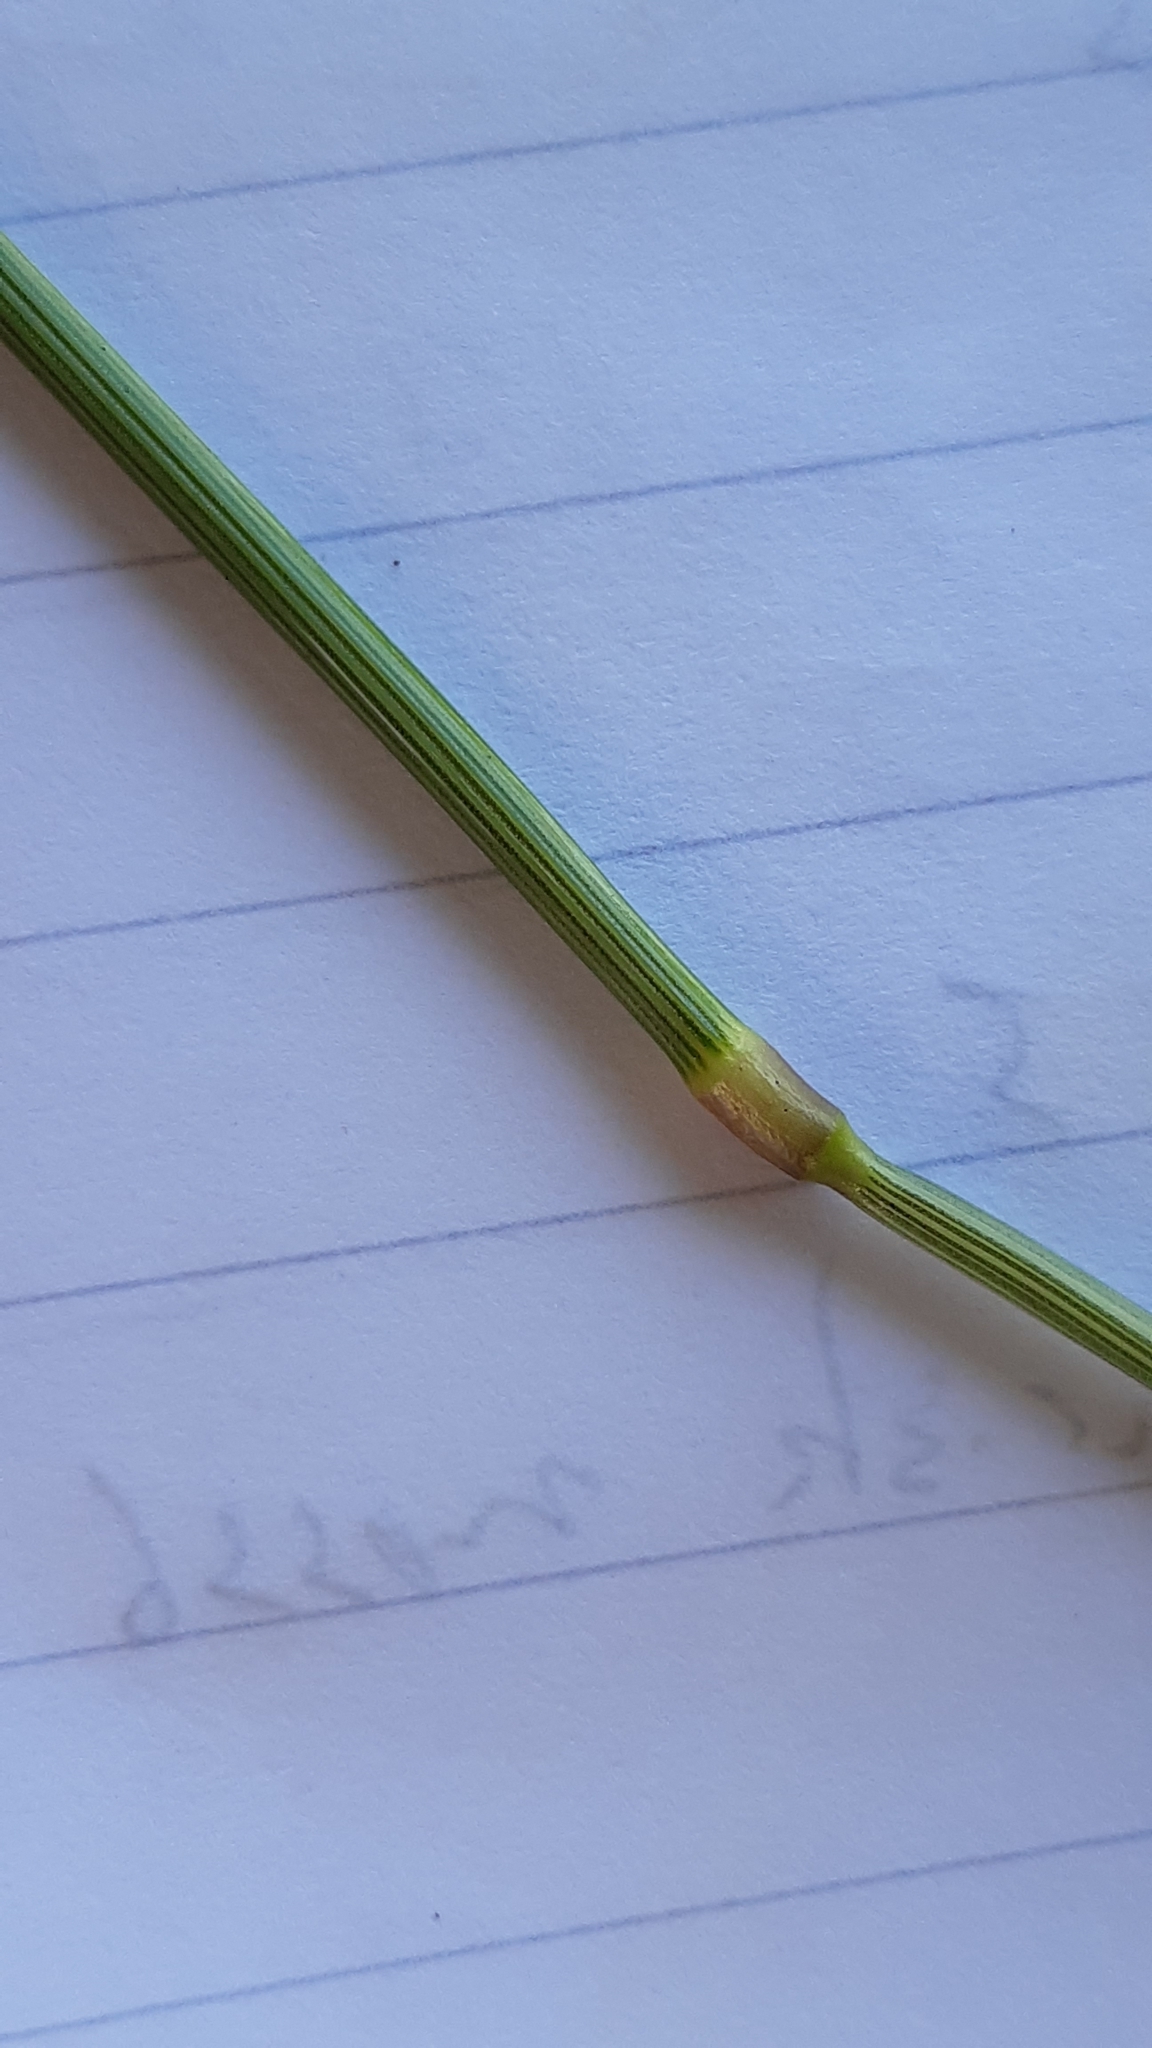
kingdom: Plantae
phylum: Tracheophyta
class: Liliopsida
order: Poales
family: Poaceae
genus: Anthoxanthum
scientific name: Anthoxanthum odoratum
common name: Sweet vernalgrass
